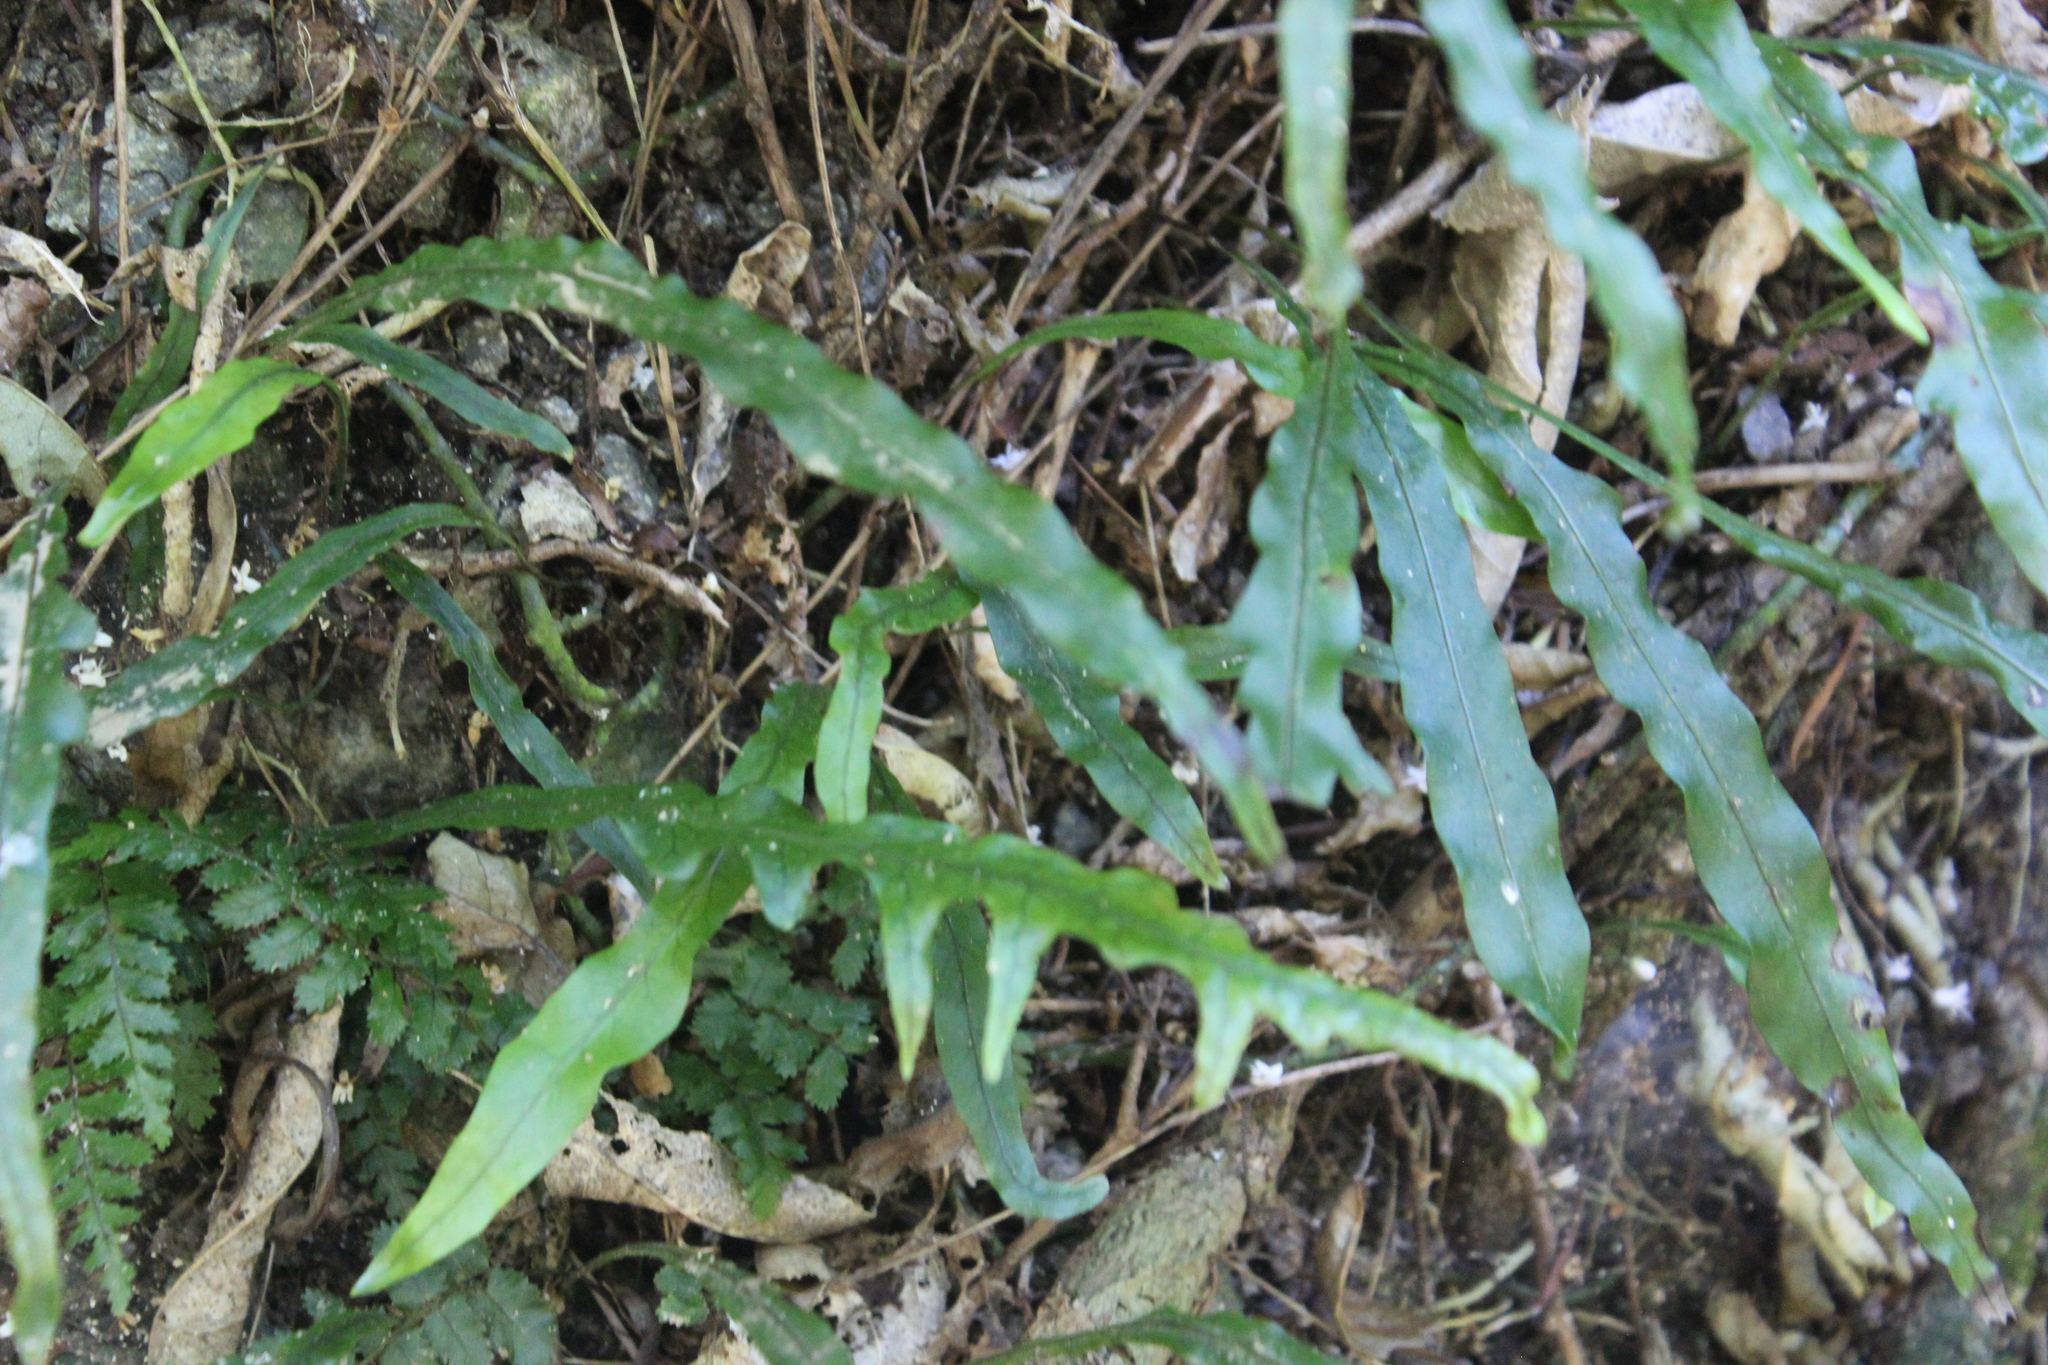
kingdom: Plantae
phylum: Tracheophyta
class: Polypodiopsida
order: Polypodiales
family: Polypodiaceae
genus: Lecanopteris
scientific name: Lecanopteris scandens
